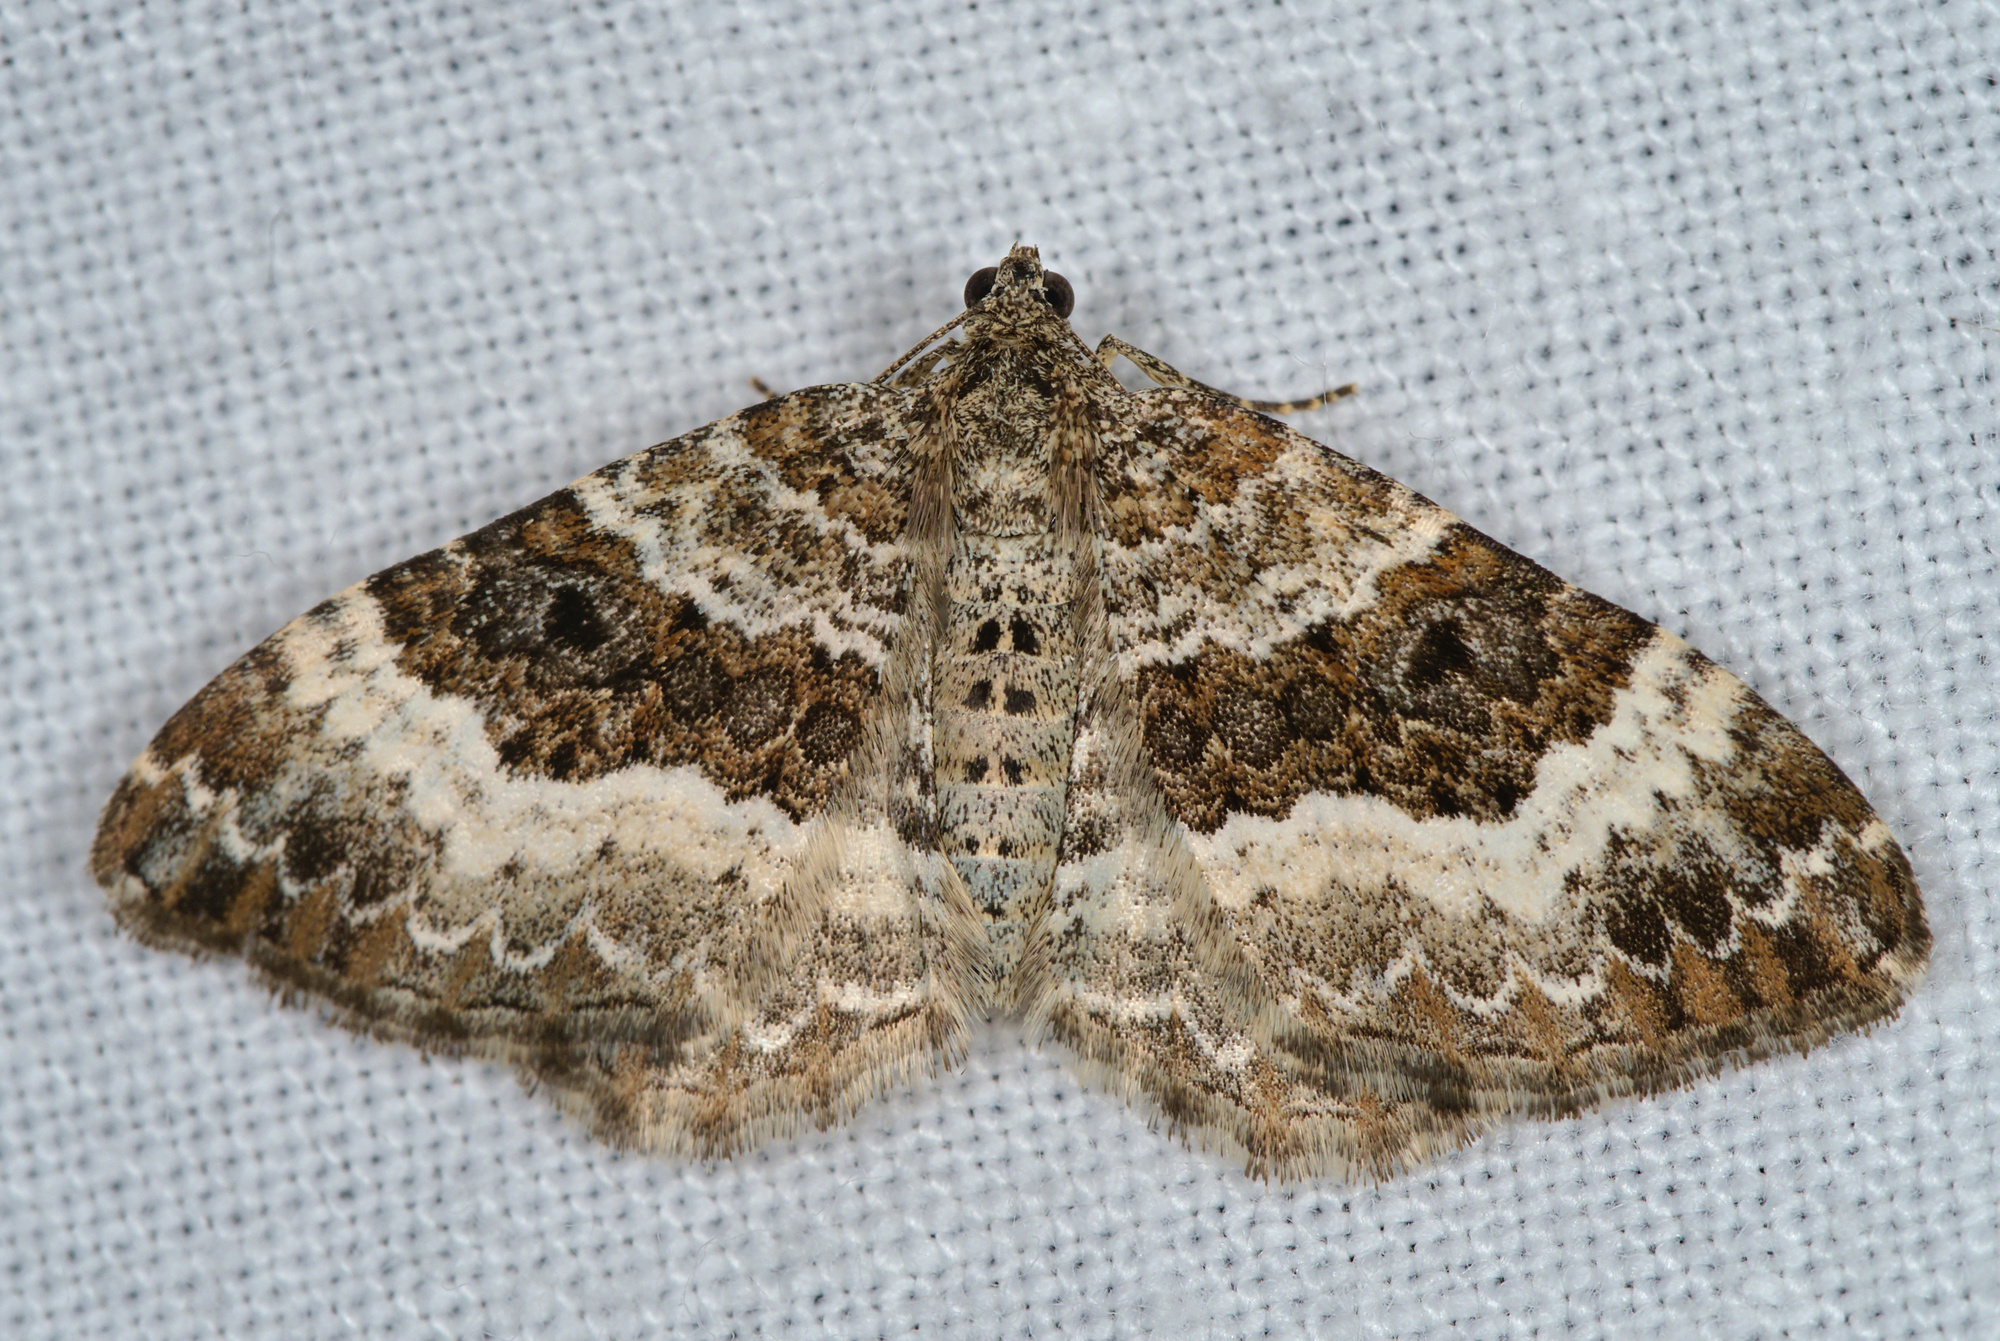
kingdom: Animalia
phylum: Arthropoda
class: Insecta
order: Lepidoptera
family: Geometridae
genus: Epirrhoe
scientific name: Epirrhoe alternata
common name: Common carpet
